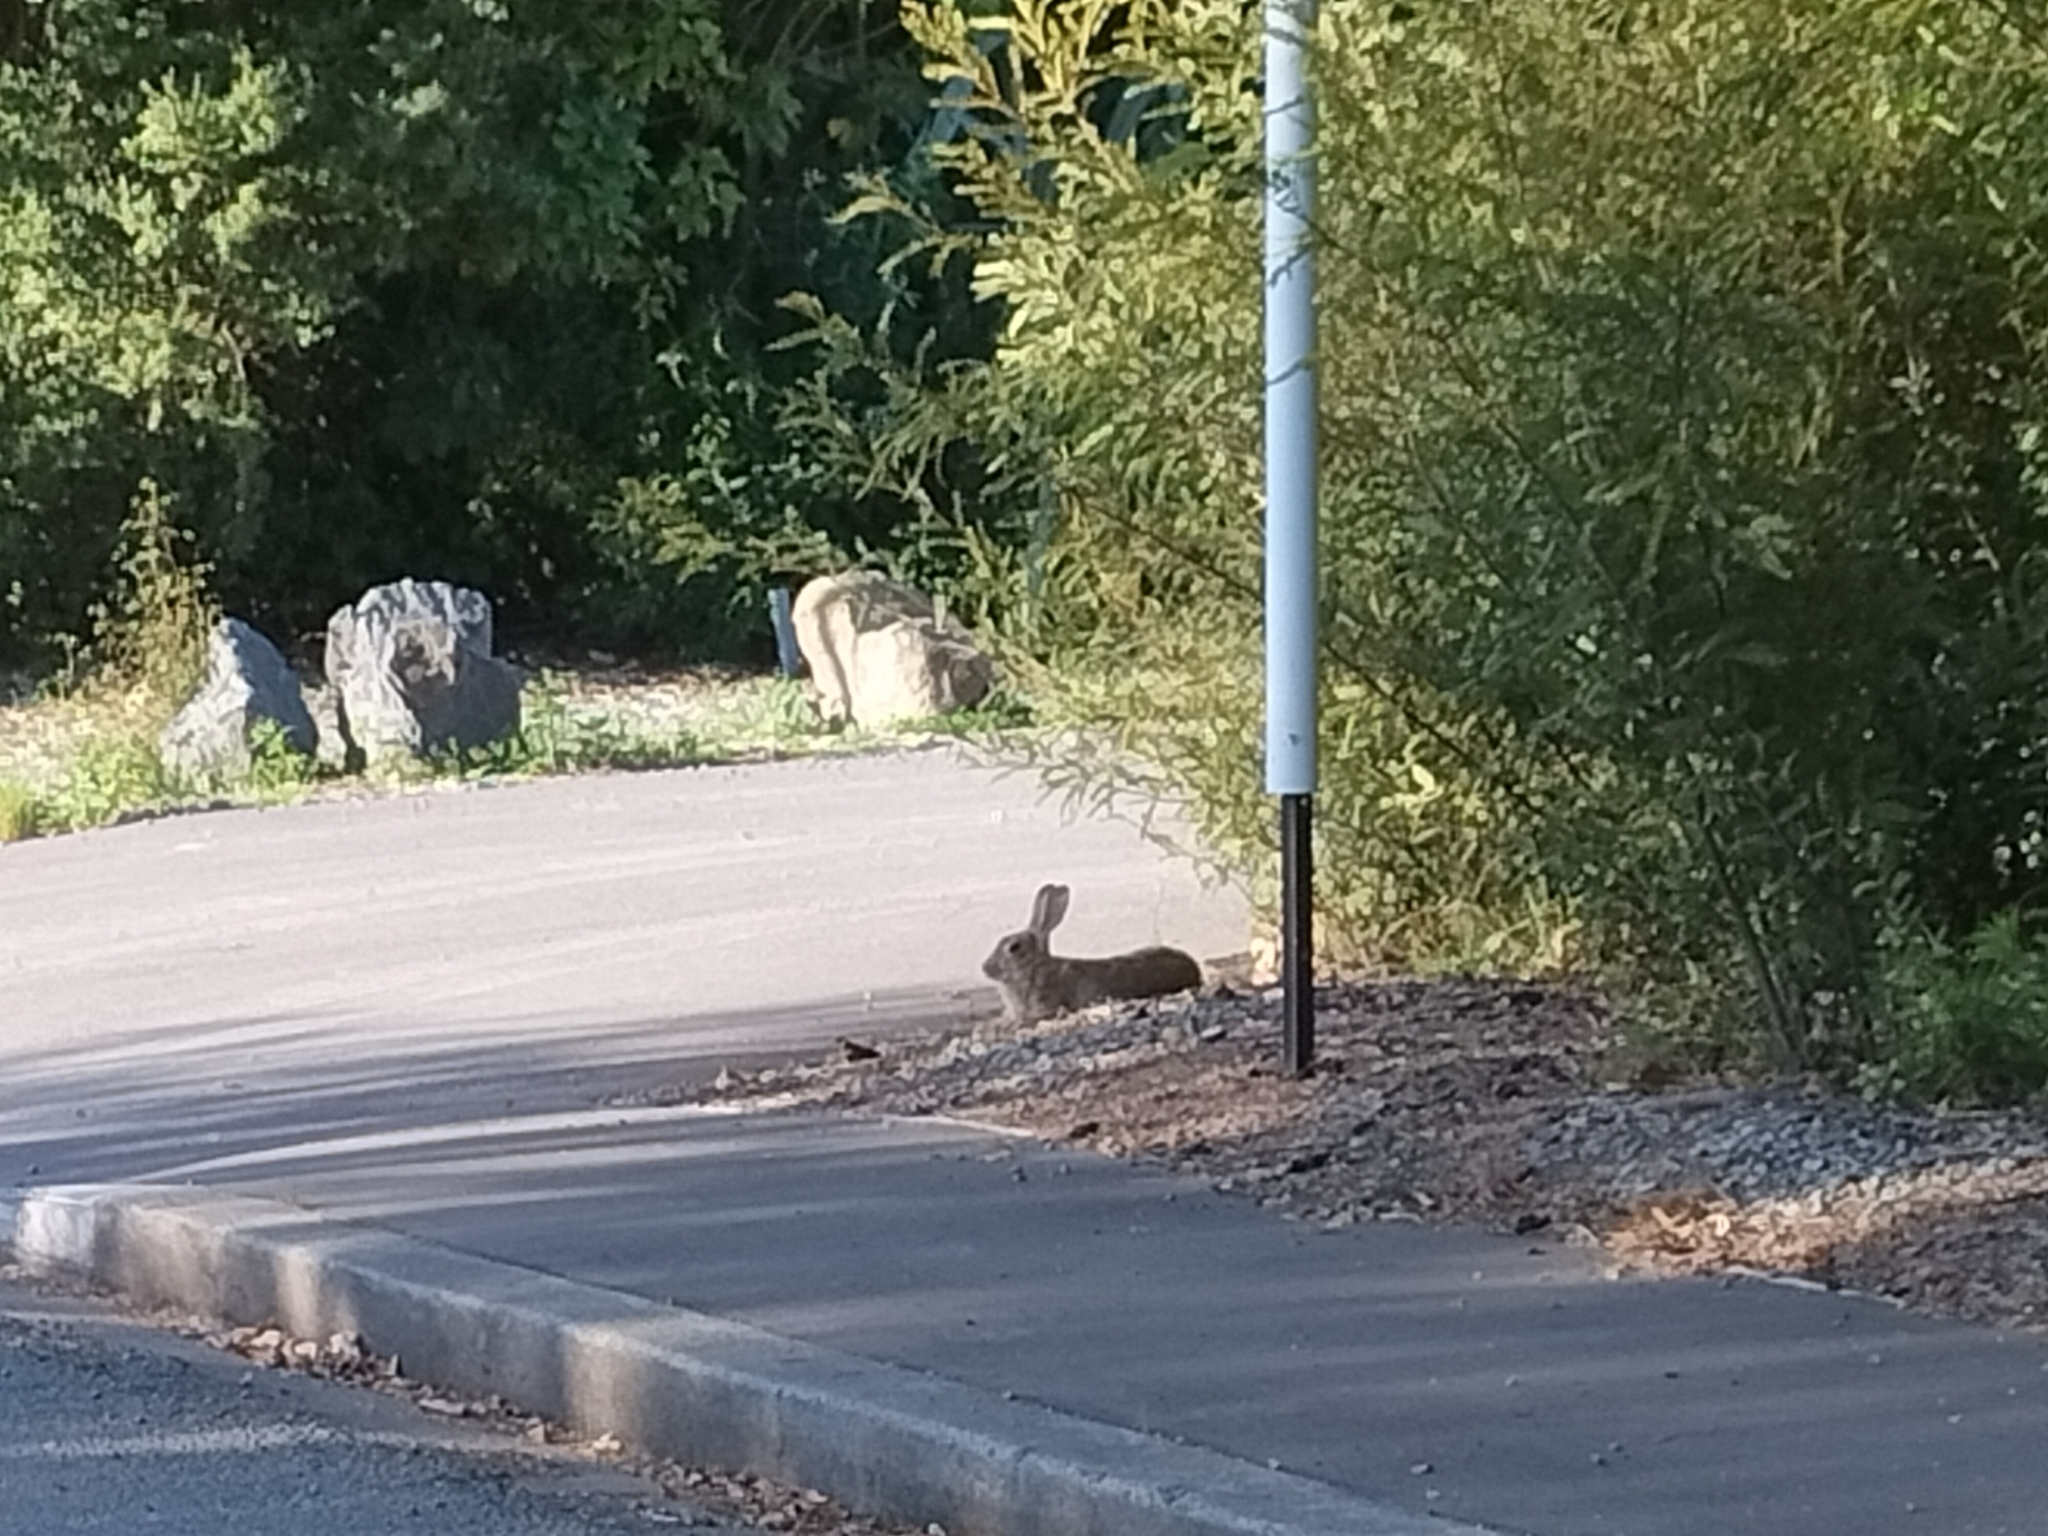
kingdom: Animalia
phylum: Chordata
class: Mammalia
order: Lagomorpha
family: Leporidae
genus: Oryctolagus
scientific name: Oryctolagus cuniculus
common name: European rabbit
